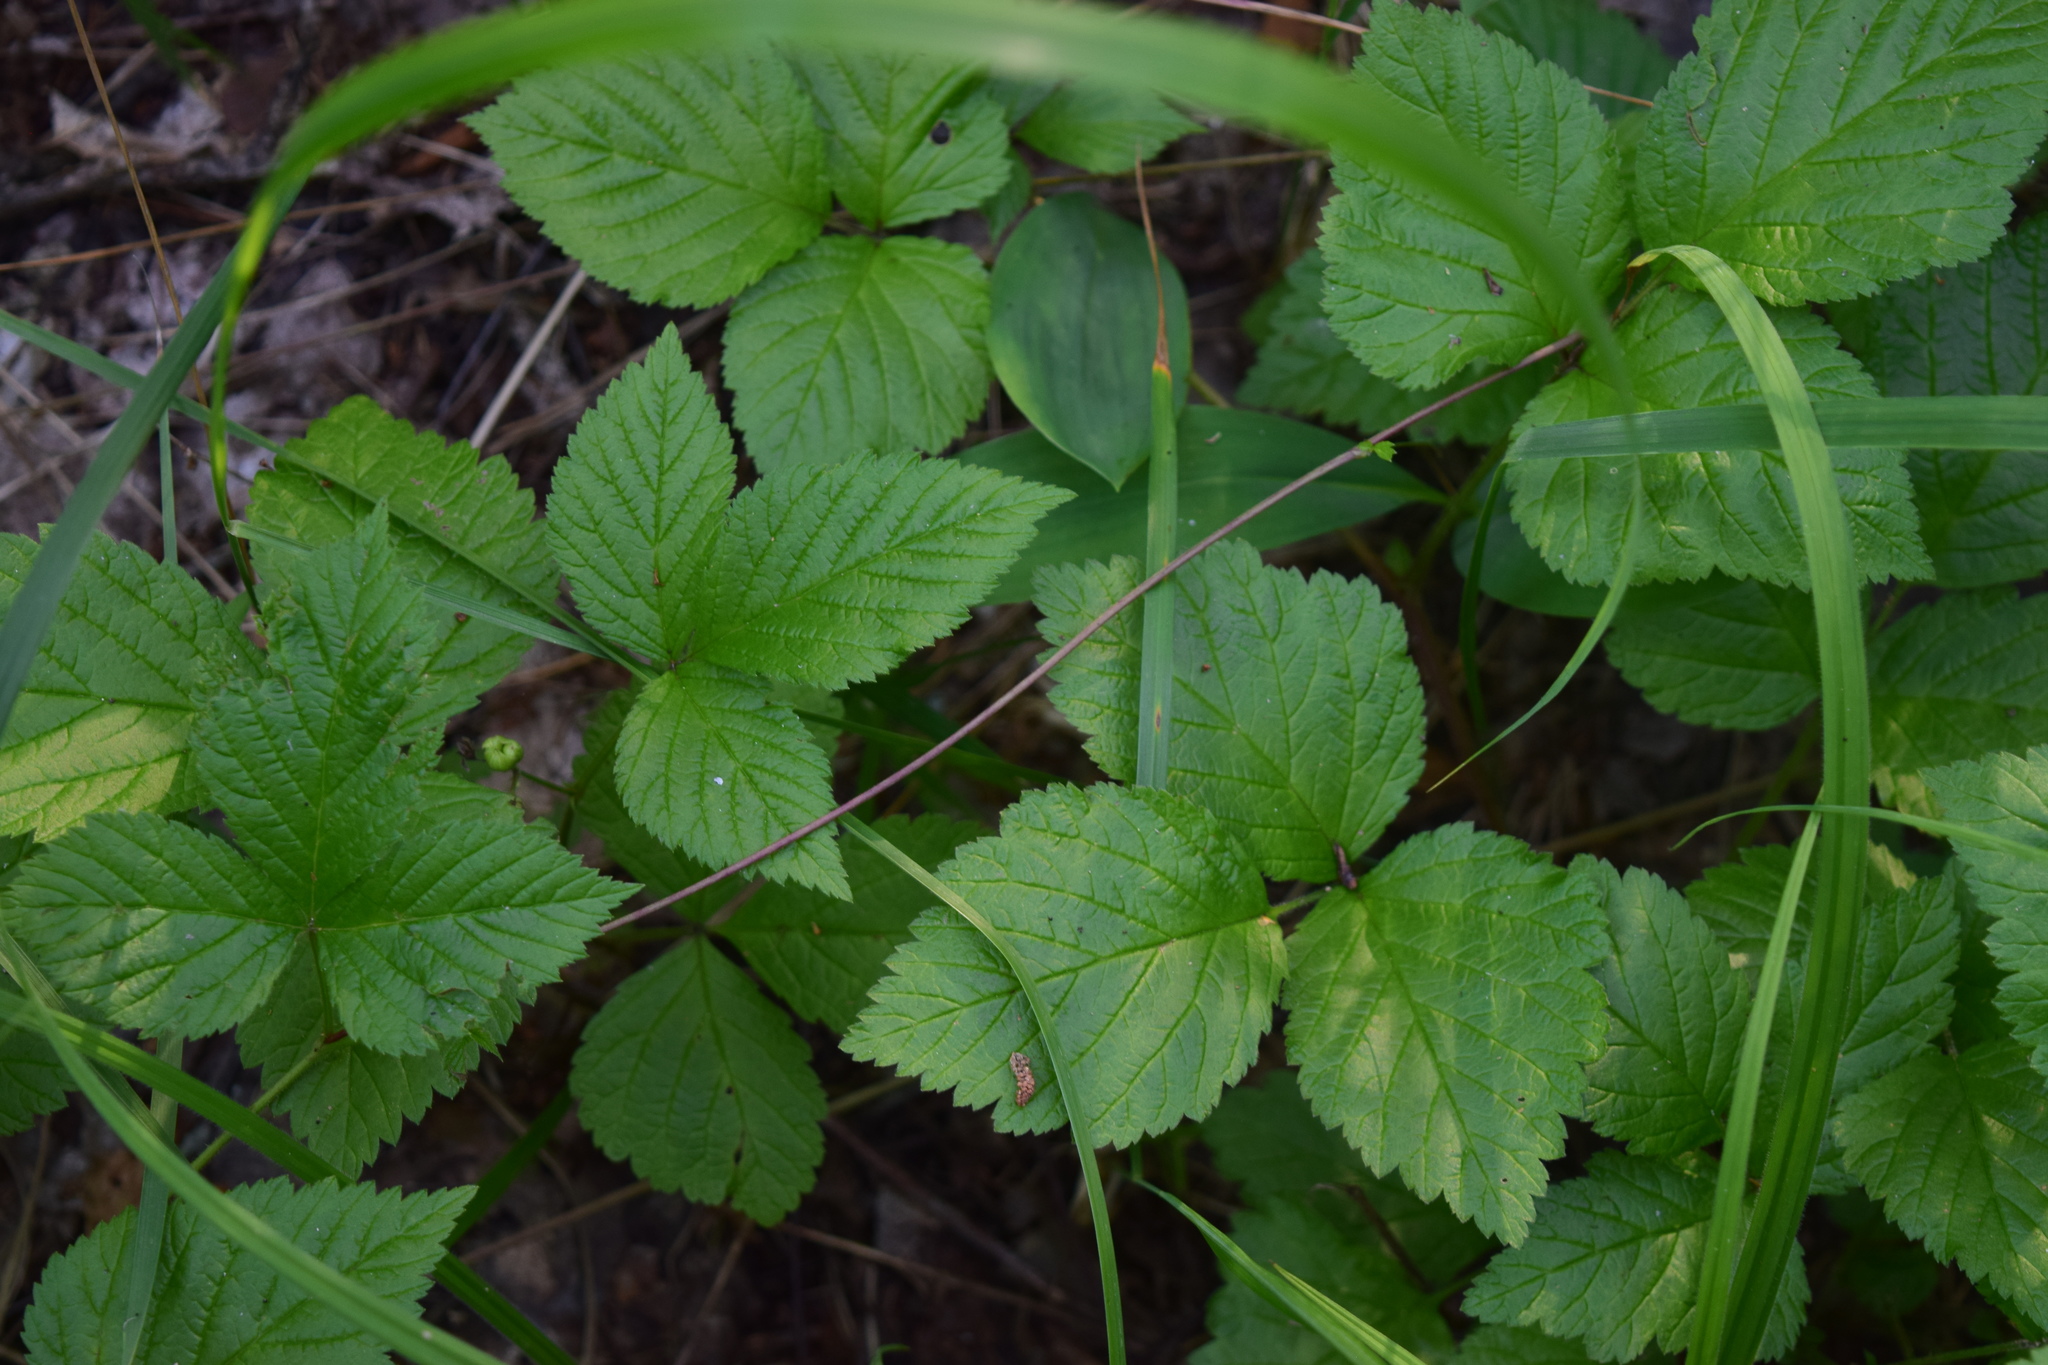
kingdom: Plantae
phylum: Tracheophyta
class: Magnoliopsida
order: Rosales
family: Rosaceae
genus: Rubus
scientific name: Rubus saxatilis
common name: Stone bramble
